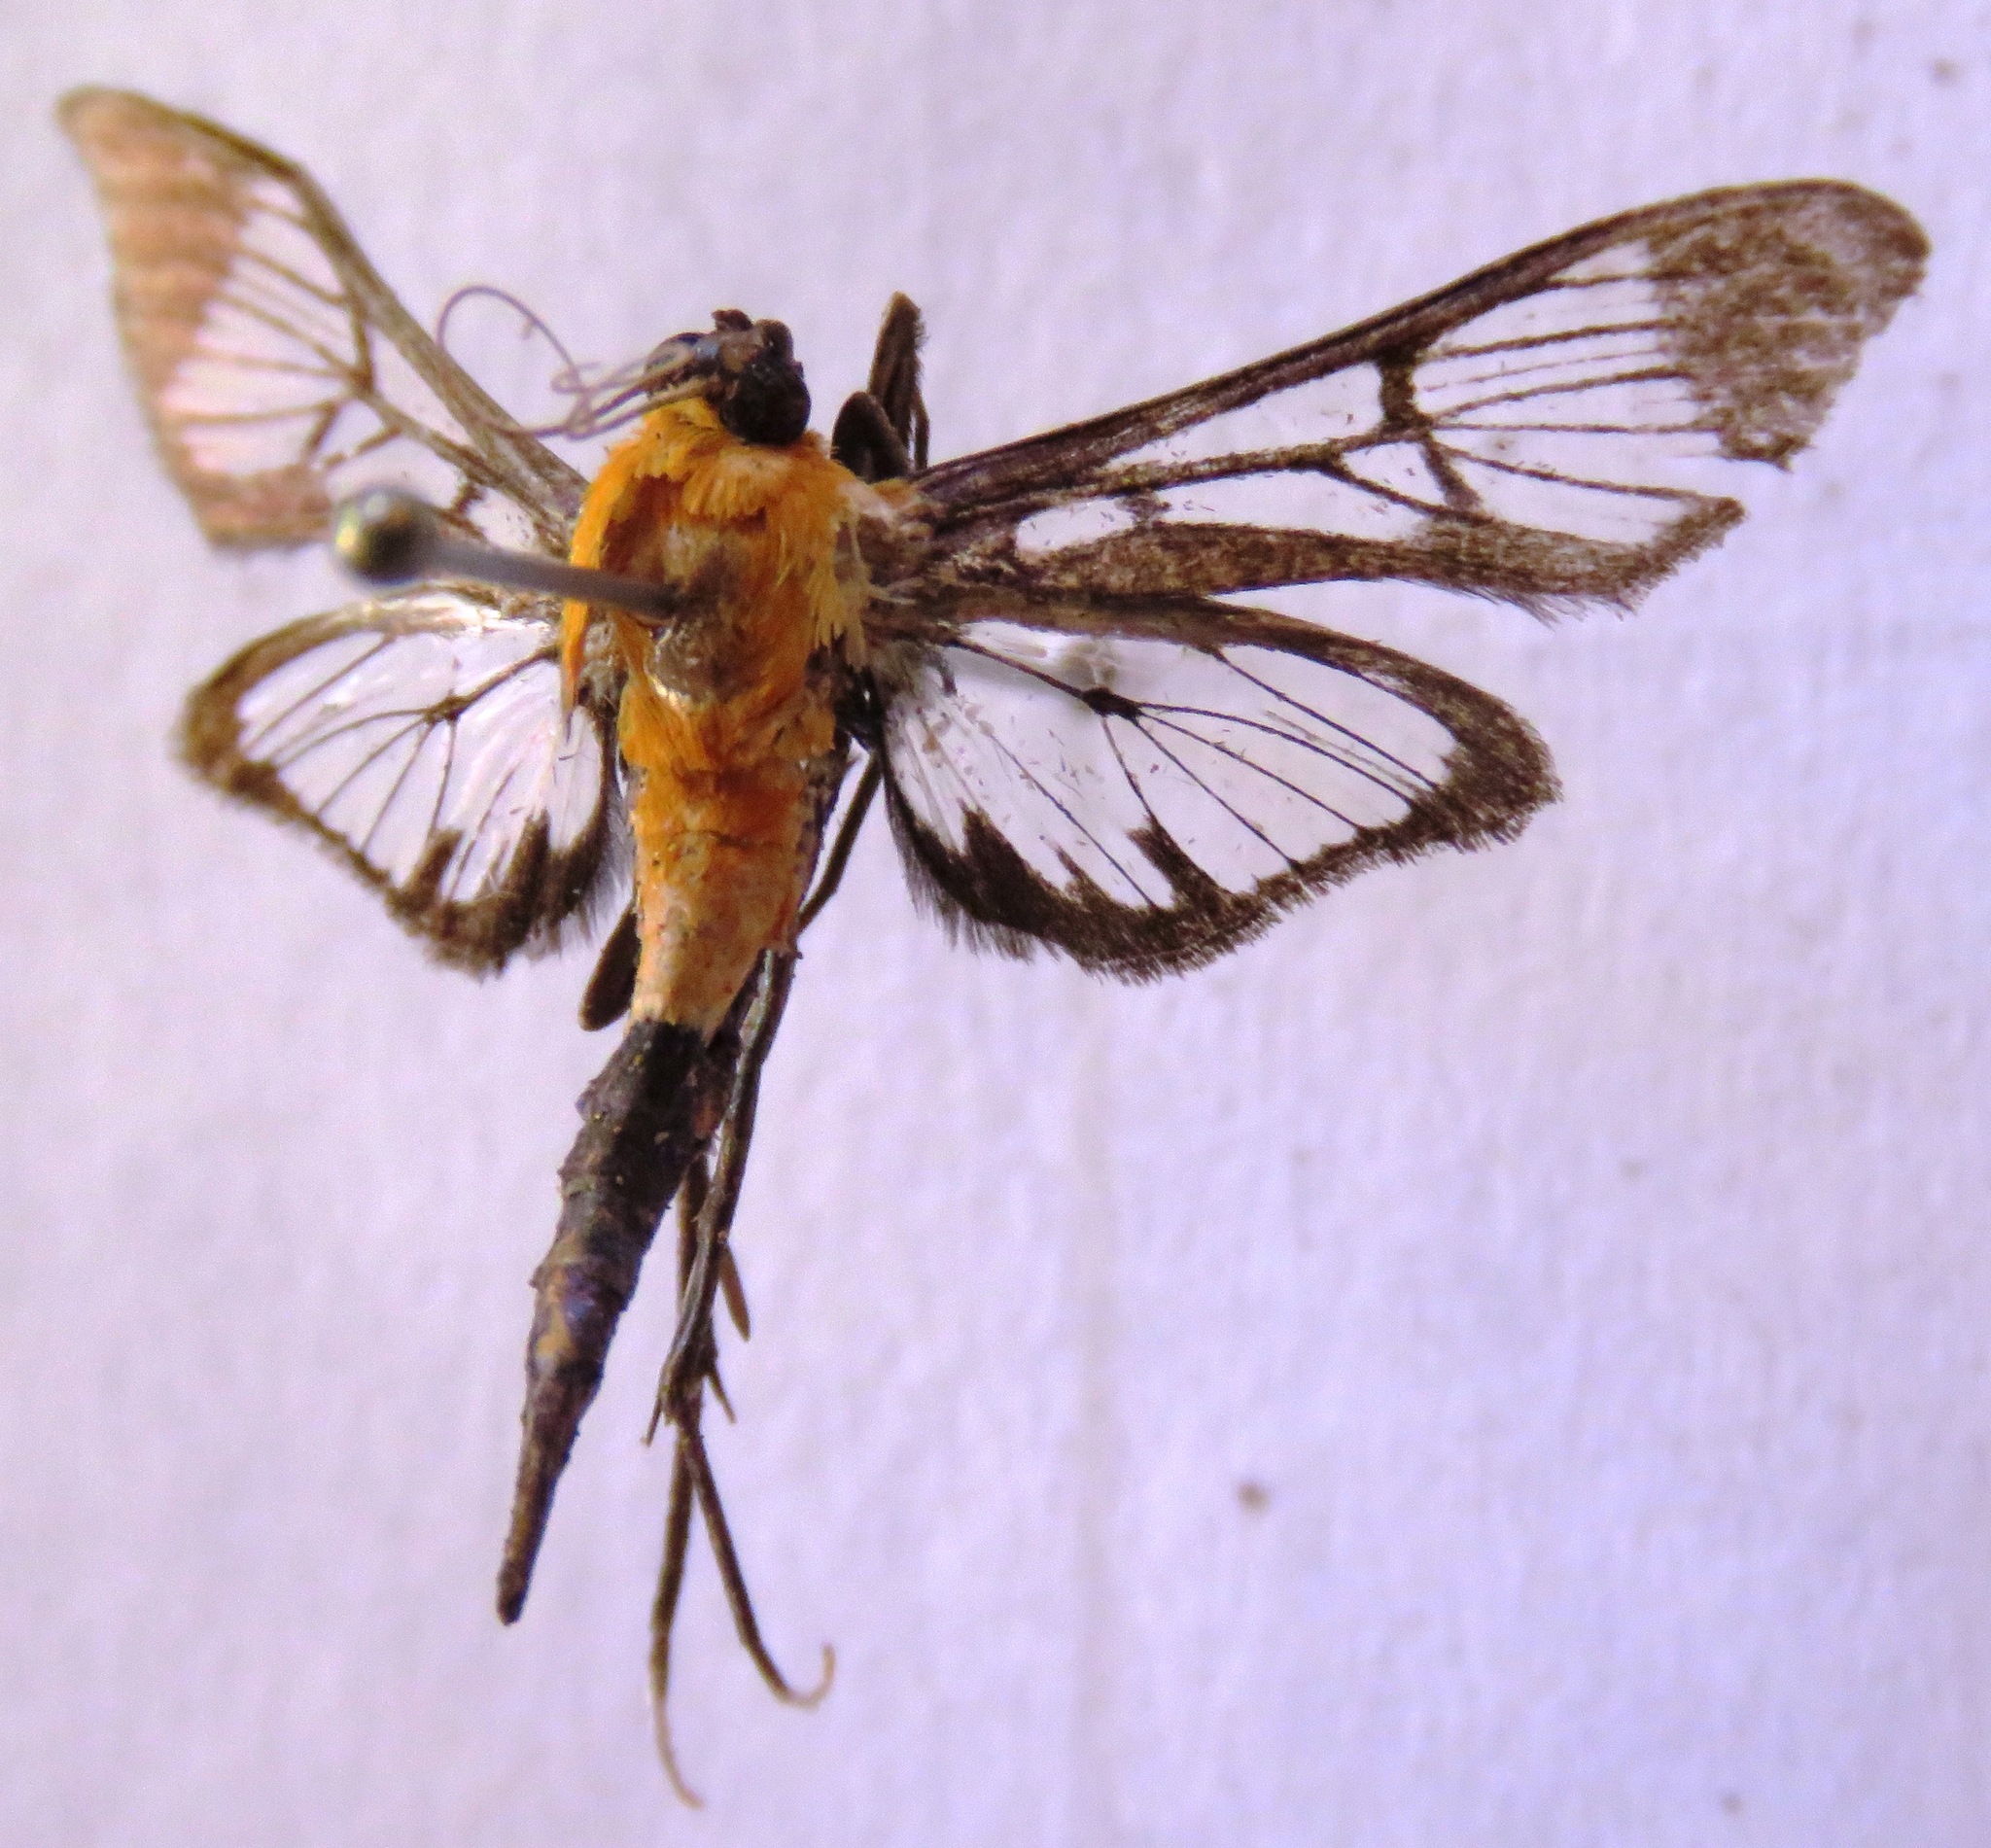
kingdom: Animalia
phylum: Arthropoda
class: Insecta
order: Lepidoptera
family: Crambidae
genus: Trichaea
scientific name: Trichaea pilicornis
